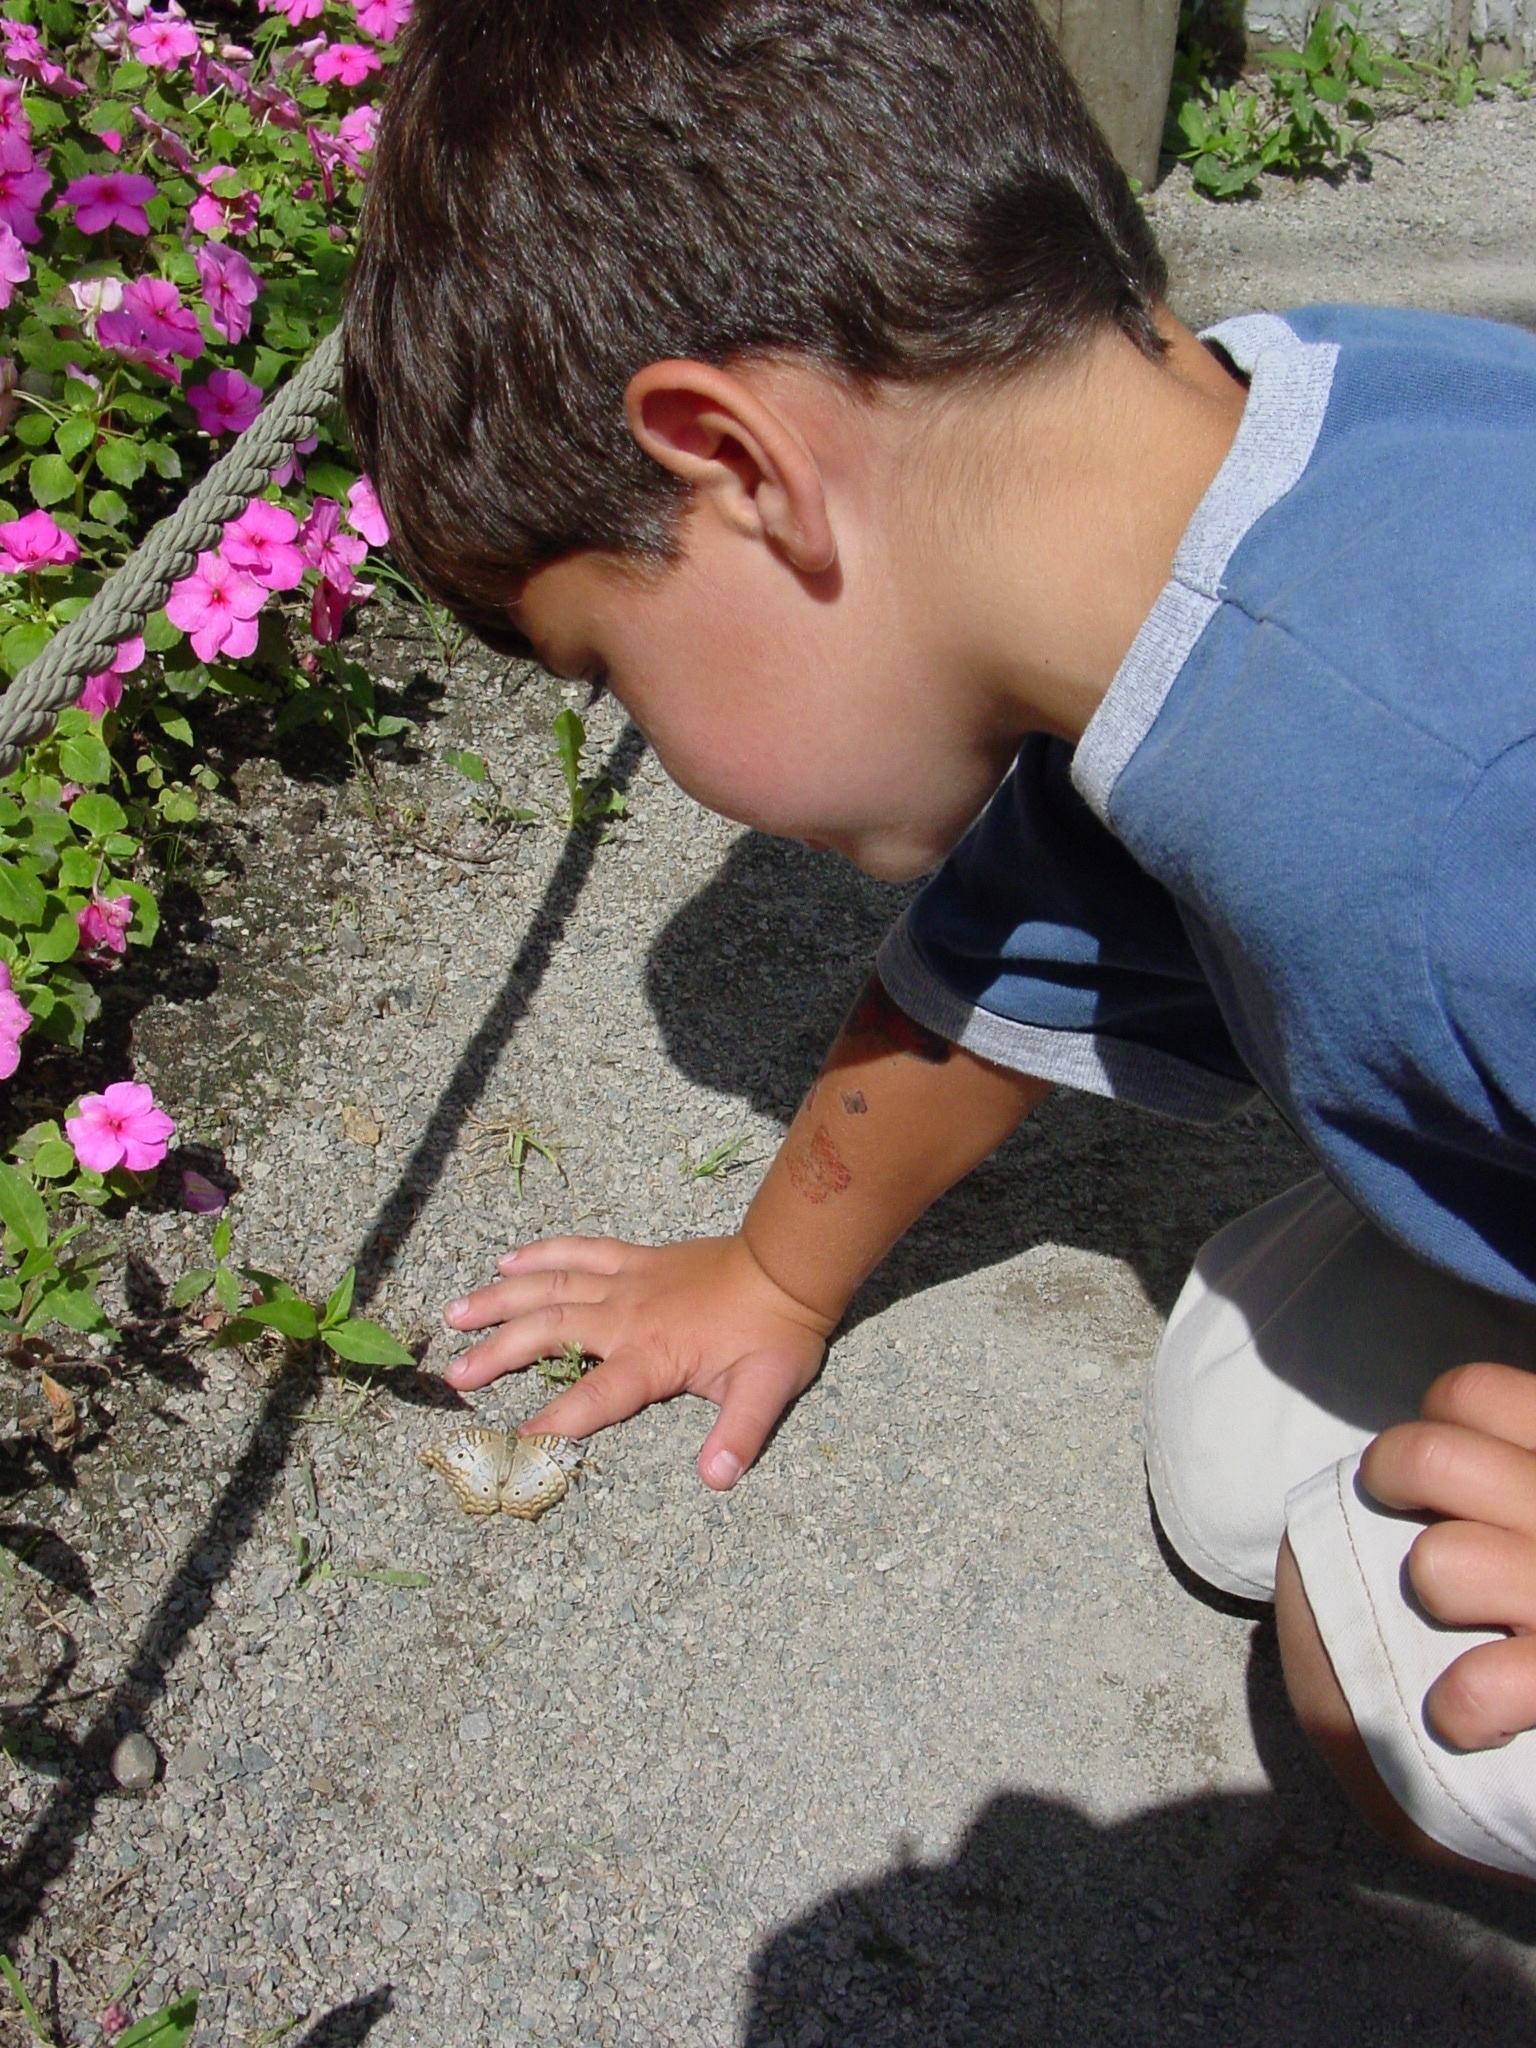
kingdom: Animalia
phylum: Arthropoda
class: Insecta
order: Lepidoptera
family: Nymphalidae
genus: Anartia
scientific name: Anartia jatrophae
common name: White peacock
